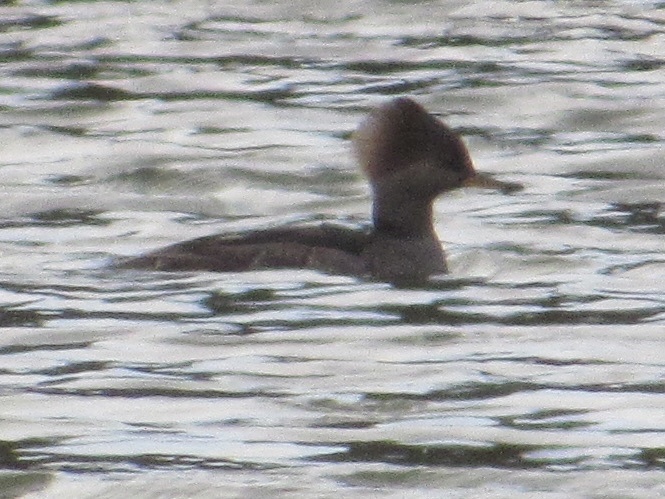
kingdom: Animalia
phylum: Chordata
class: Aves
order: Anseriformes
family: Anatidae
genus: Lophodytes
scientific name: Lophodytes cucullatus
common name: Hooded merganser
